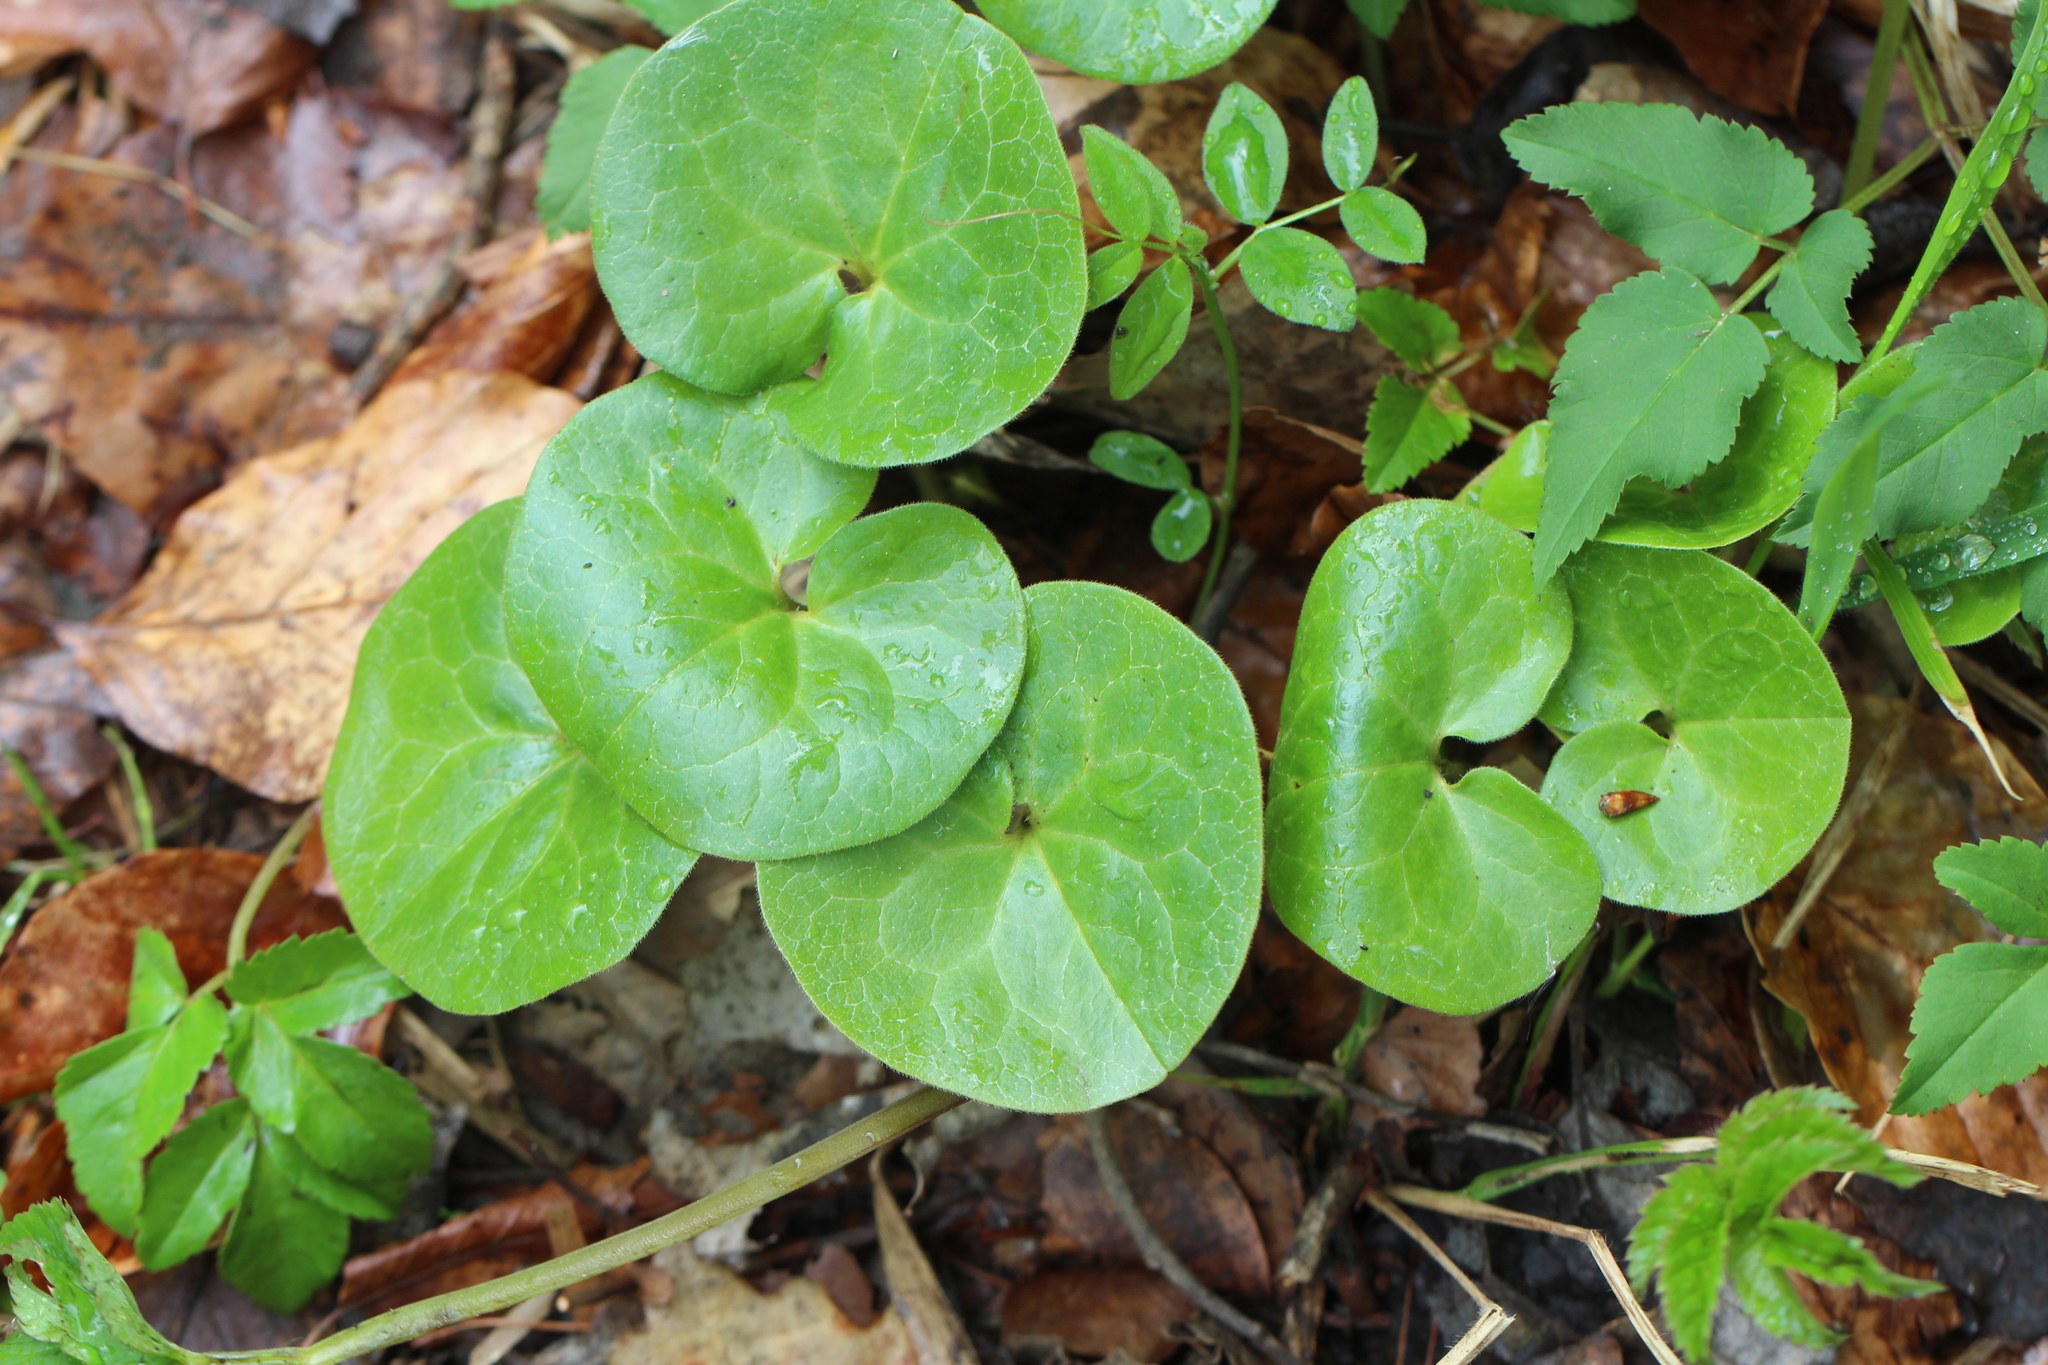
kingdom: Plantae
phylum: Tracheophyta
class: Magnoliopsida
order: Piperales
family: Aristolochiaceae
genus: Asarum
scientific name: Asarum europaeum
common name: Asarabacca
